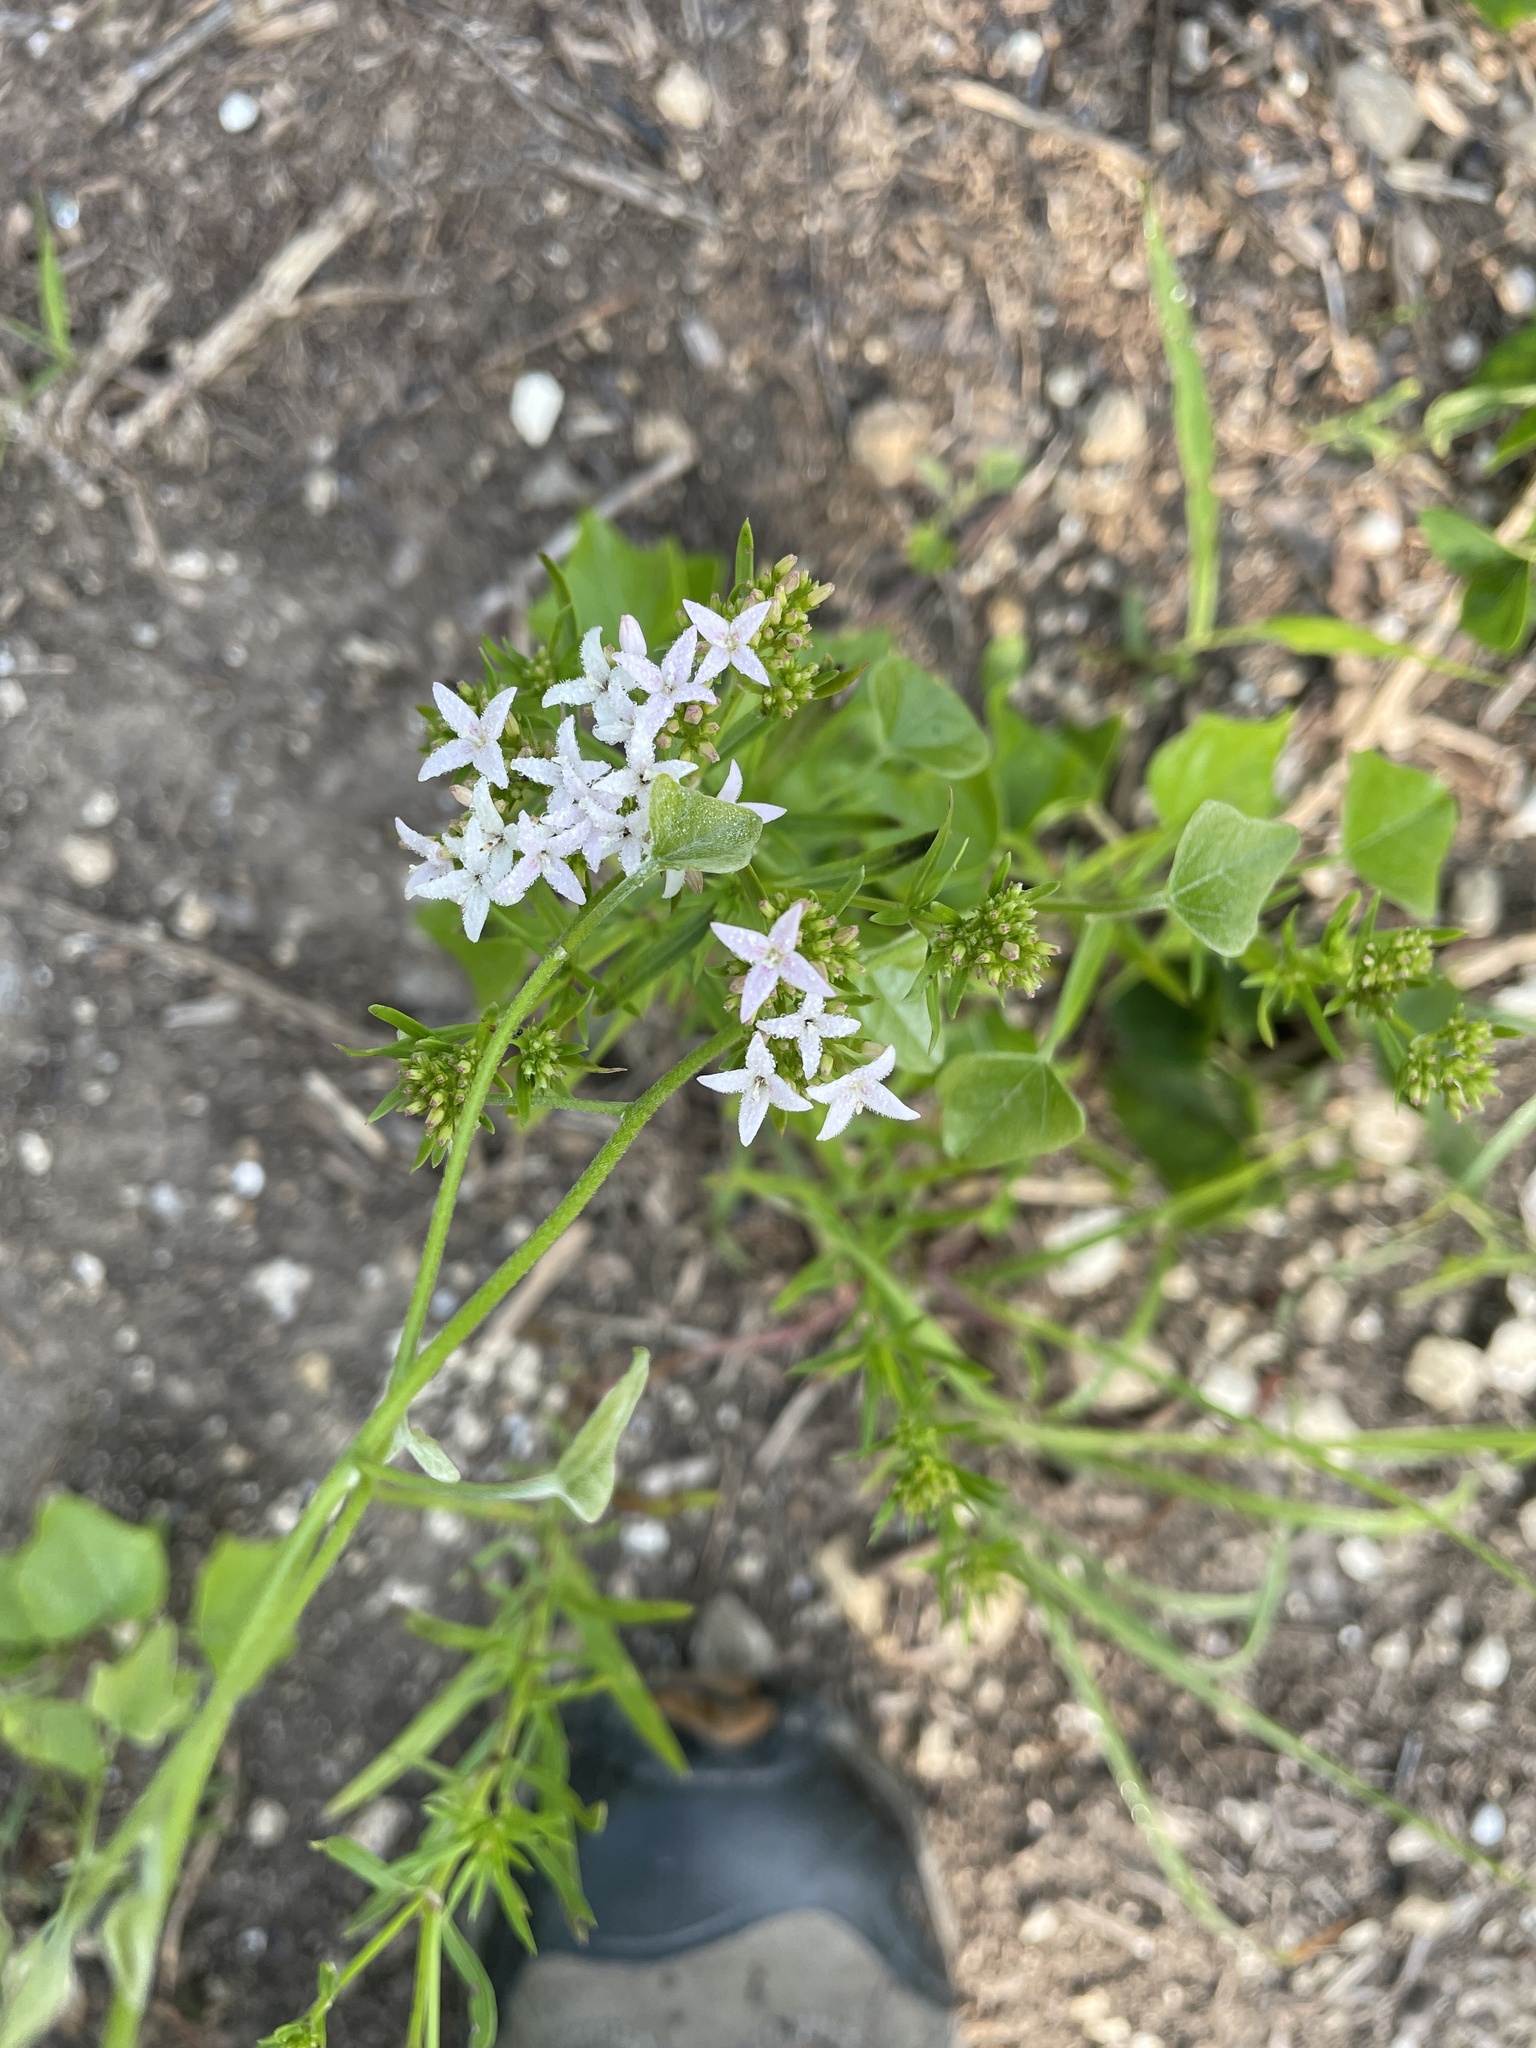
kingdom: Plantae
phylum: Tracheophyta
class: Magnoliopsida
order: Gentianales
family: Rubiaceae
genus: Stenaria
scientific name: Stenaria nigricans
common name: Diamondflowers
